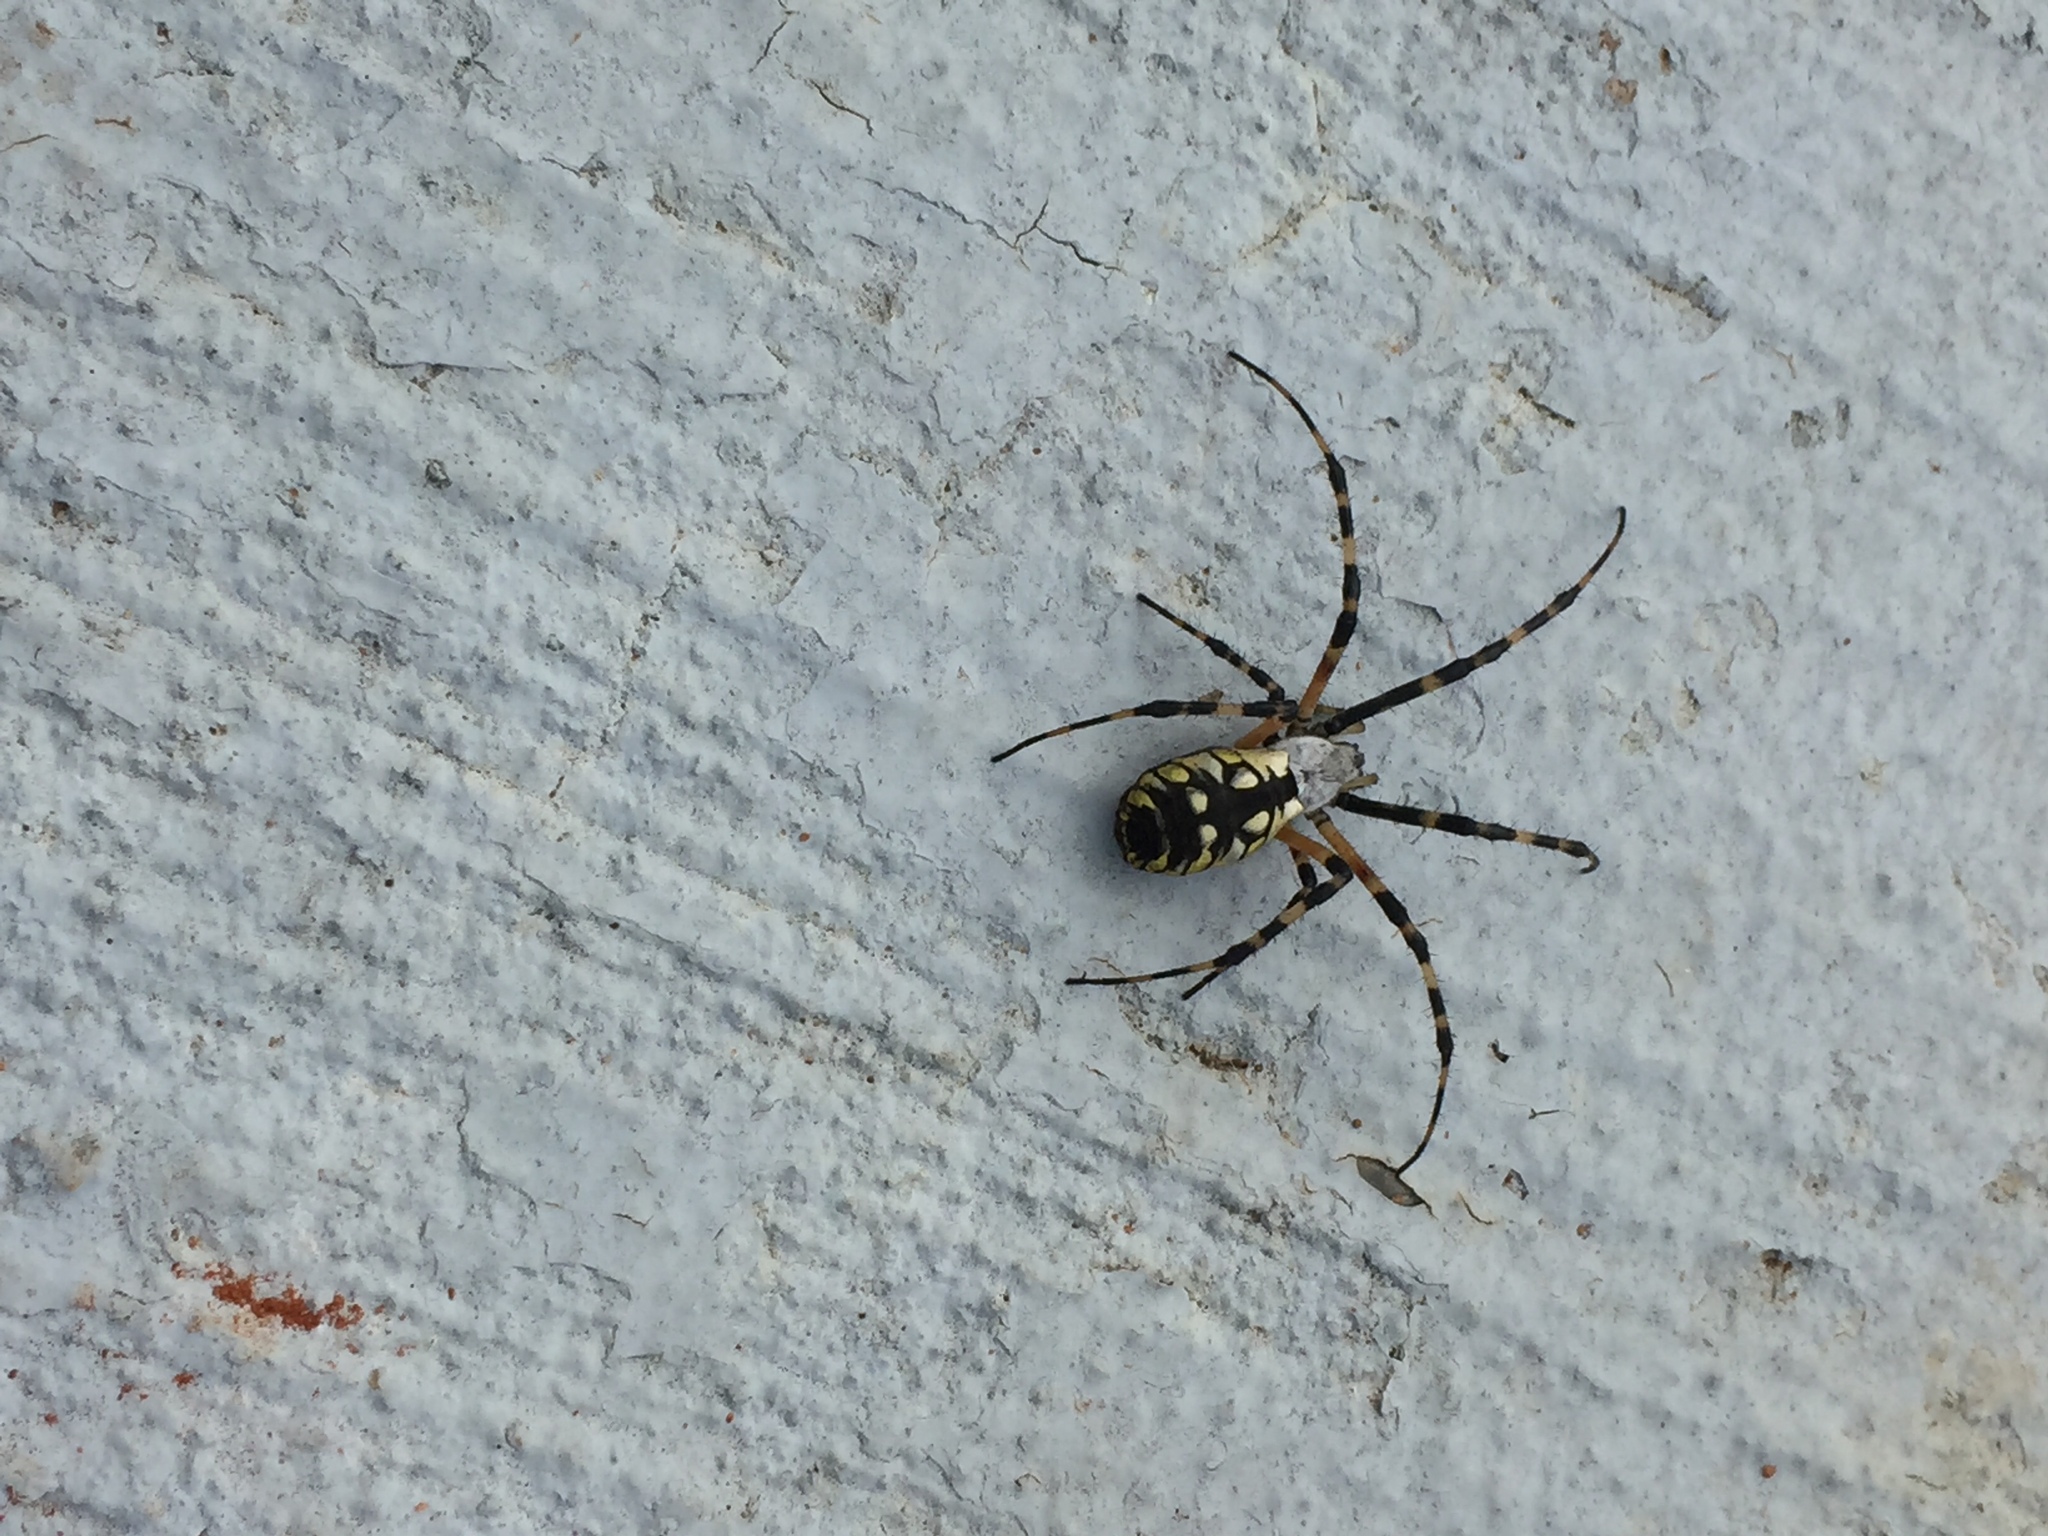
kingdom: Animalia
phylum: Arthropoda
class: Arachnida
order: Araneae
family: Araneidae
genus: Argiope
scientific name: Argiope aurantia
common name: Orb weavers
